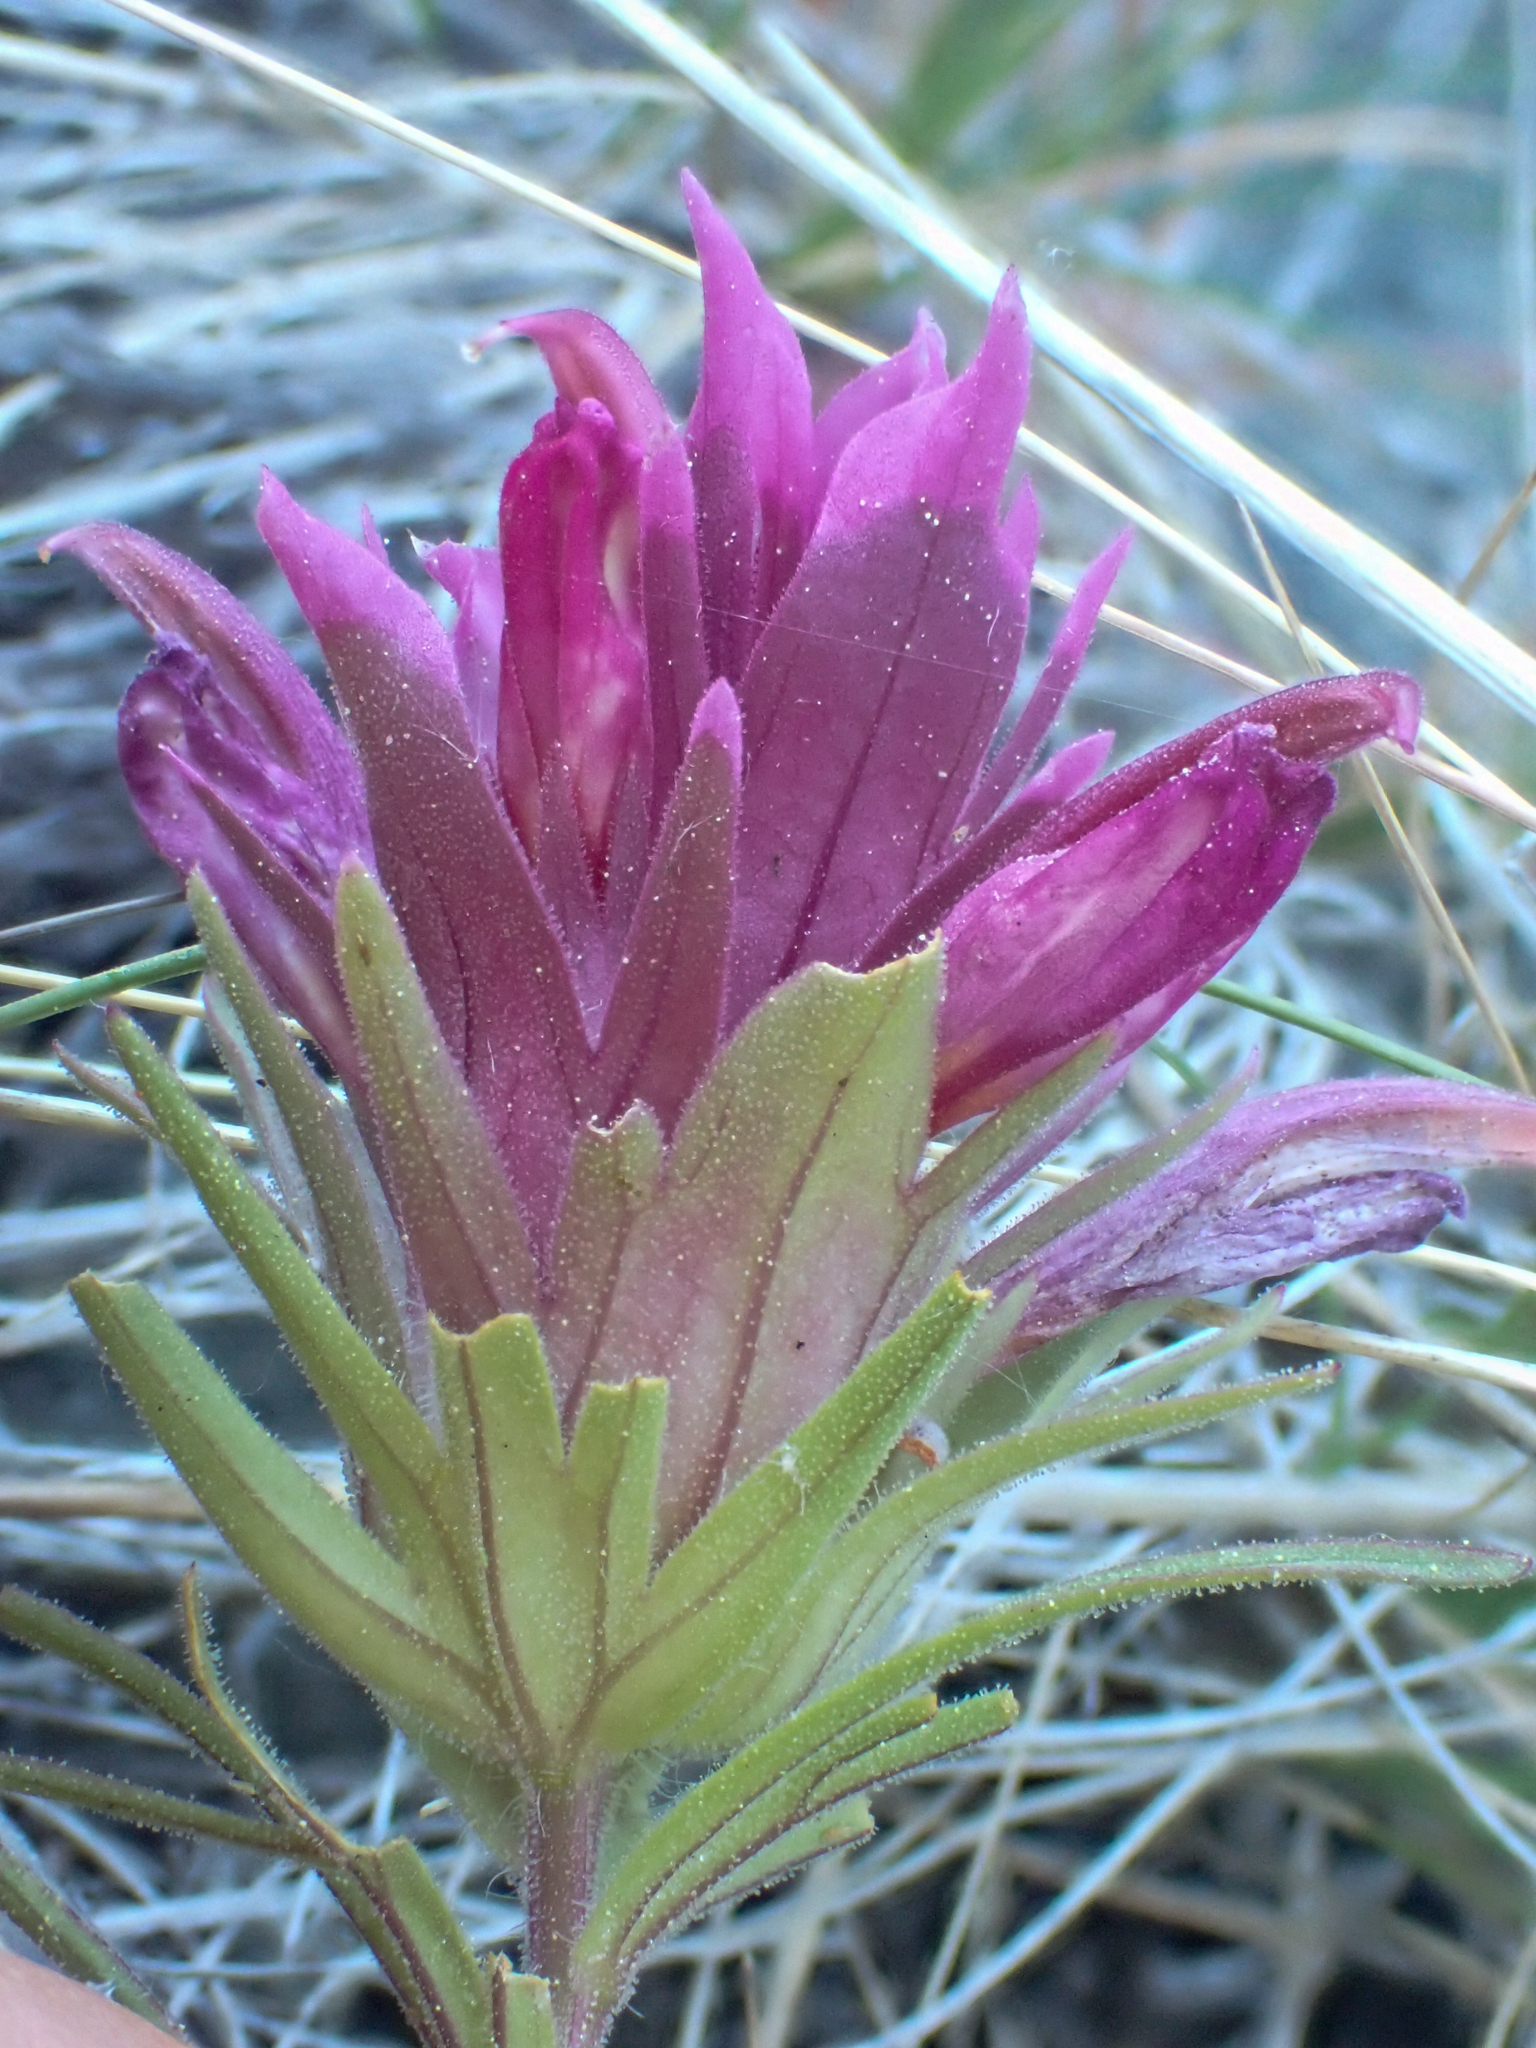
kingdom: Plantae
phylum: Tracheophyta
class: Magnoliopsida
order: Lamiales
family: Orobanchaceae
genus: Orthocarpus
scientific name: Orthocarpus pachystachyus
